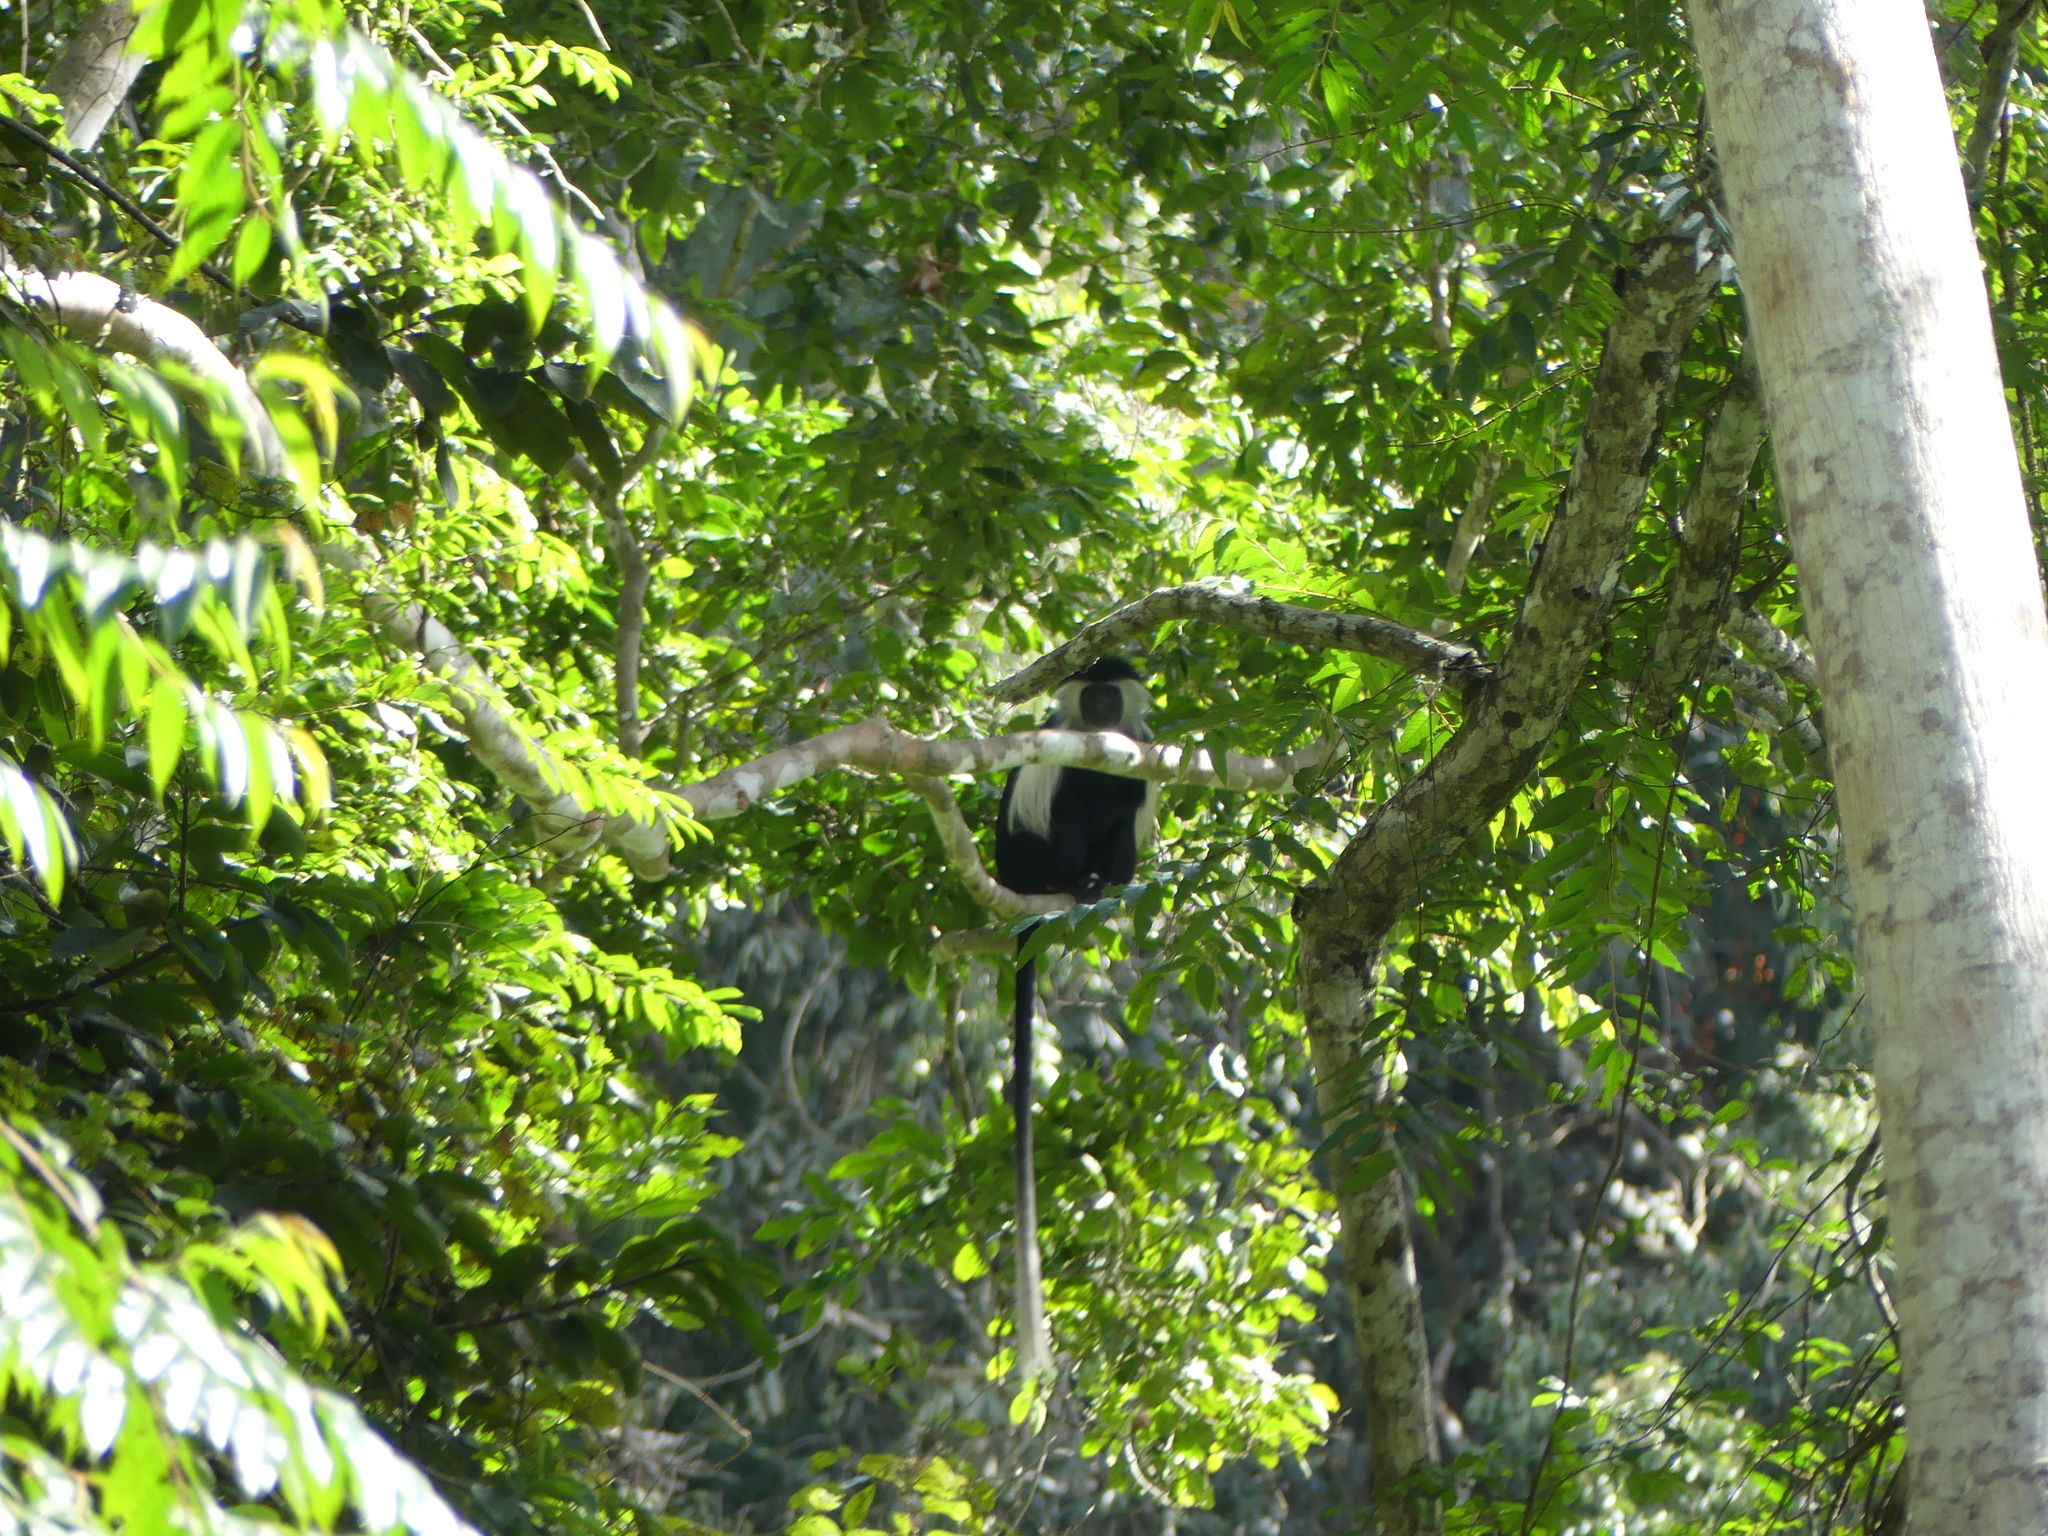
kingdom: Animalia
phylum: Chordata
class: Mammalia
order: Primates
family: Cercopithecidae
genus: Colobus
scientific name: Colobus angolensis
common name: Angola colobus
